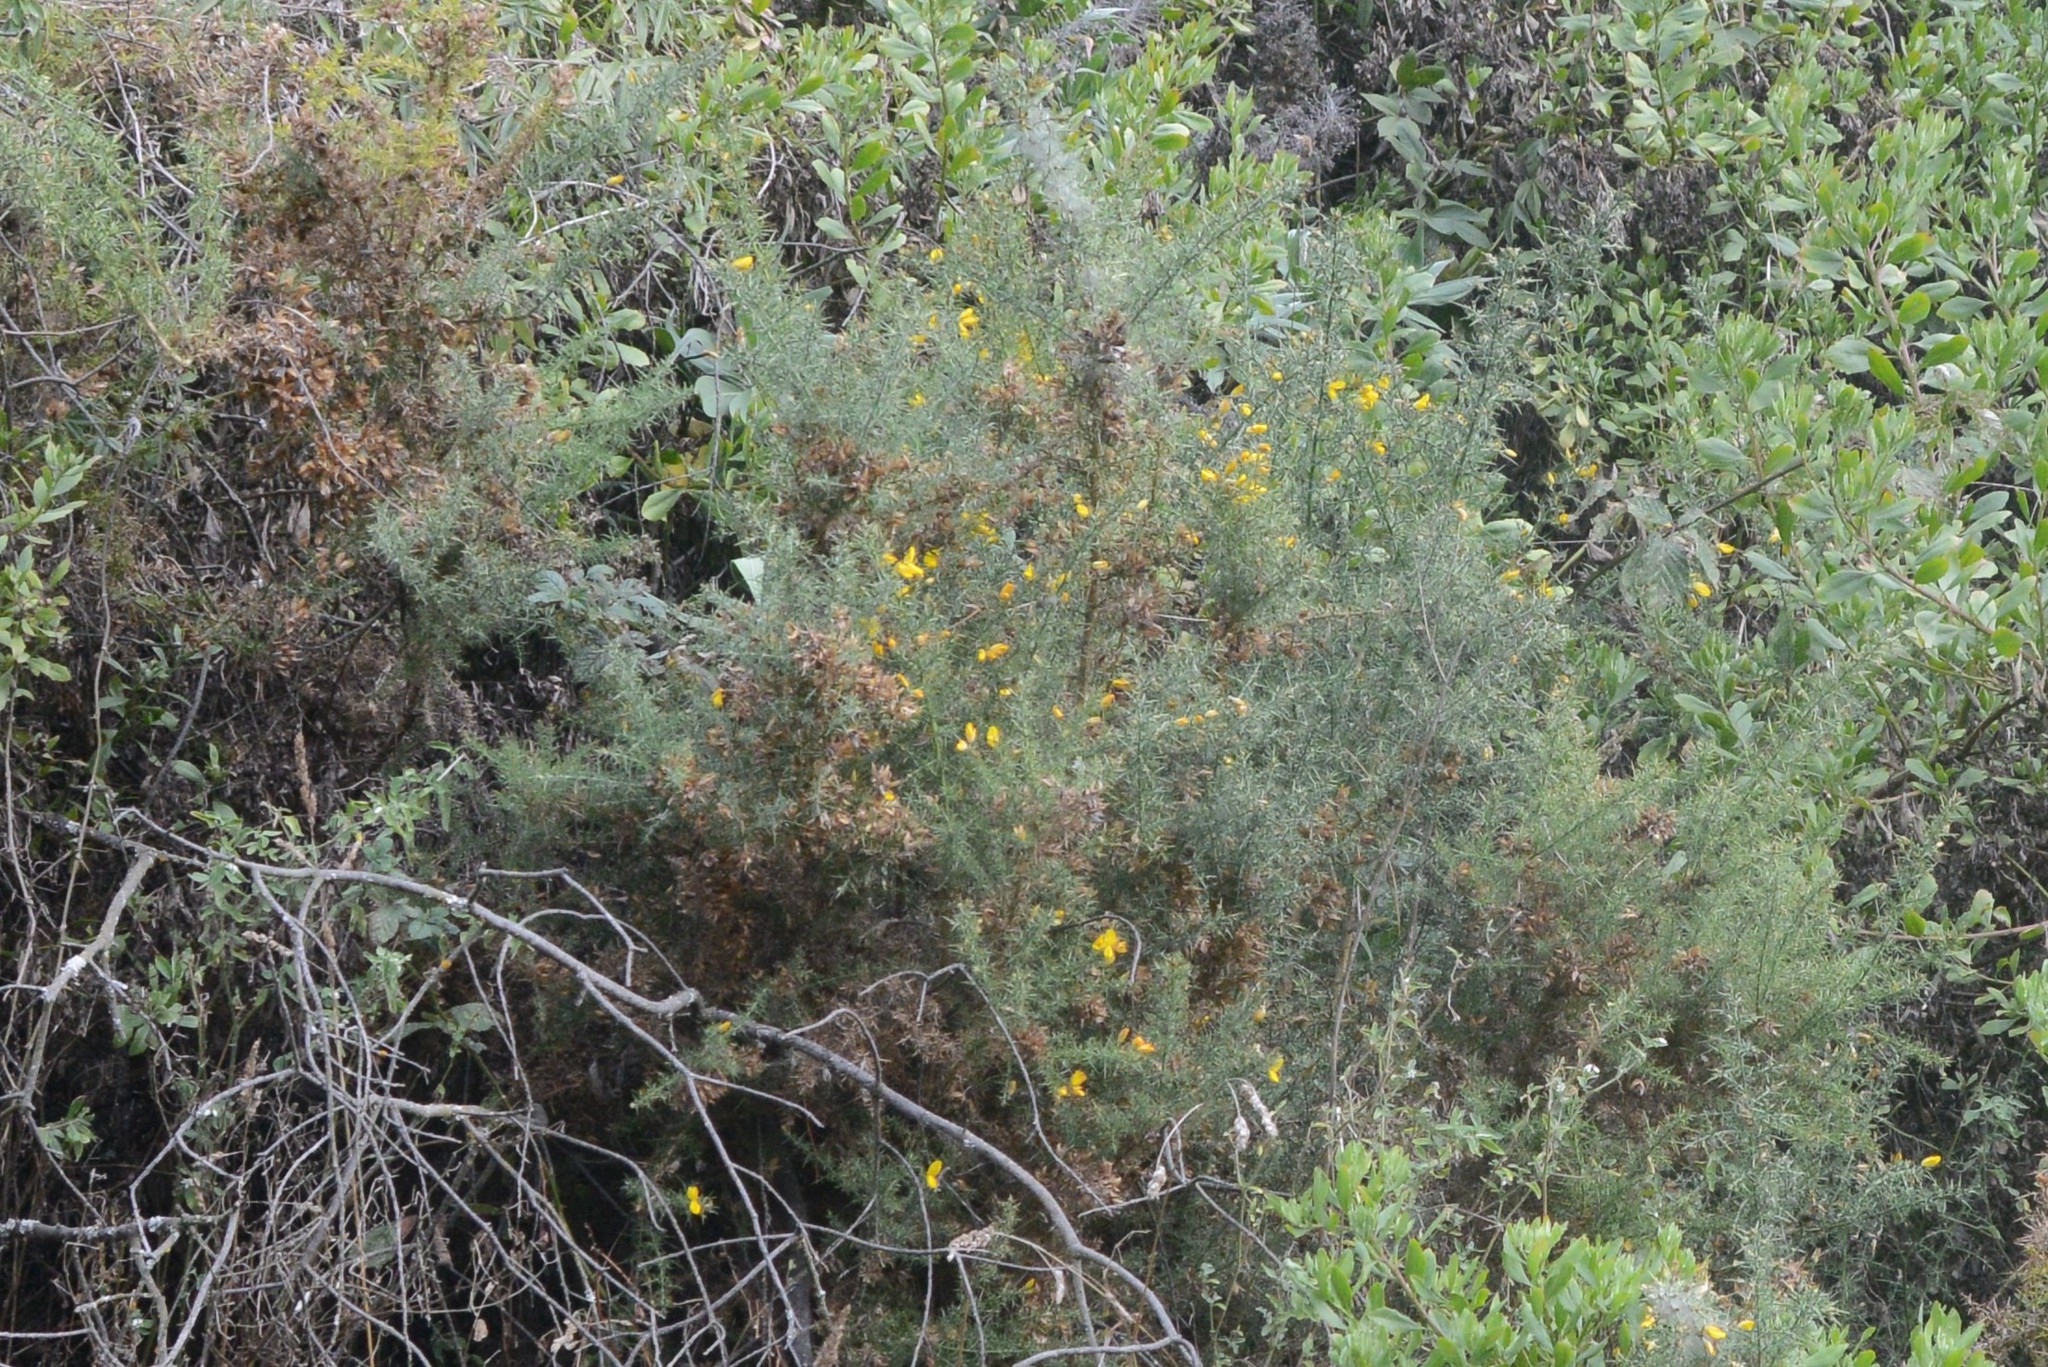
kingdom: Plantae
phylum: Tracheophyta
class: Magnoliopsida
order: Fabales
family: Fabaceae
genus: Ulex
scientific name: Ulex europaeus
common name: Common gorse
